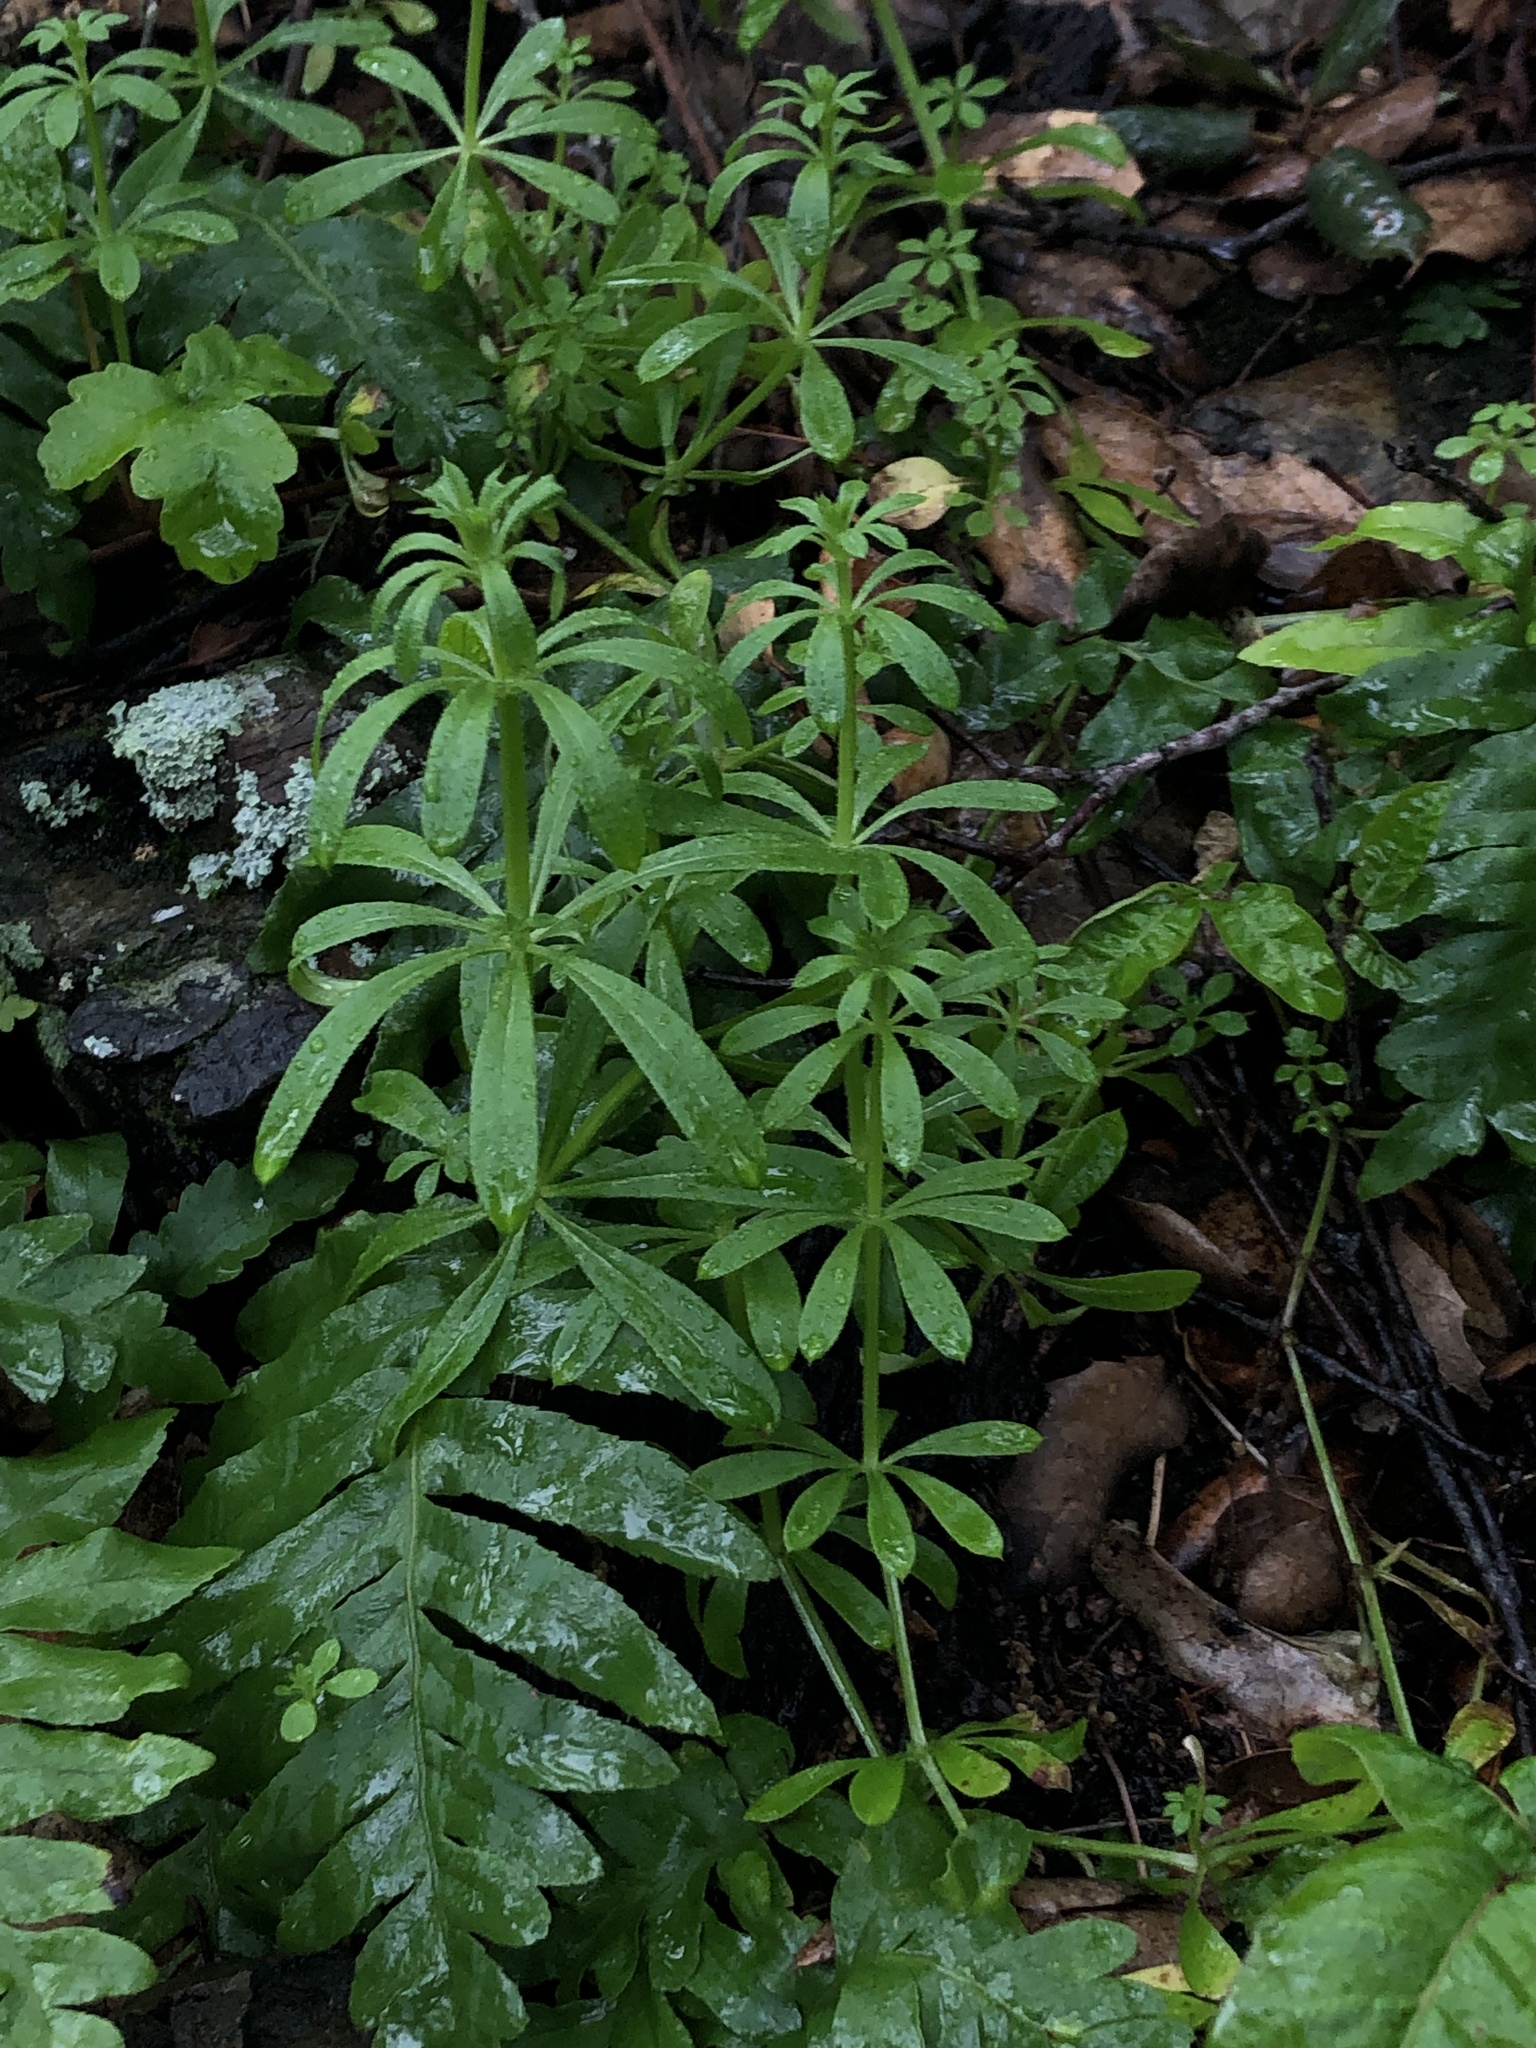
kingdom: Plantae
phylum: Tracheophyta
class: Magnoliopsida
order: Gentianales
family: Rubiaceae
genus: Galium
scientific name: Galium aparine
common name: Cleavers
